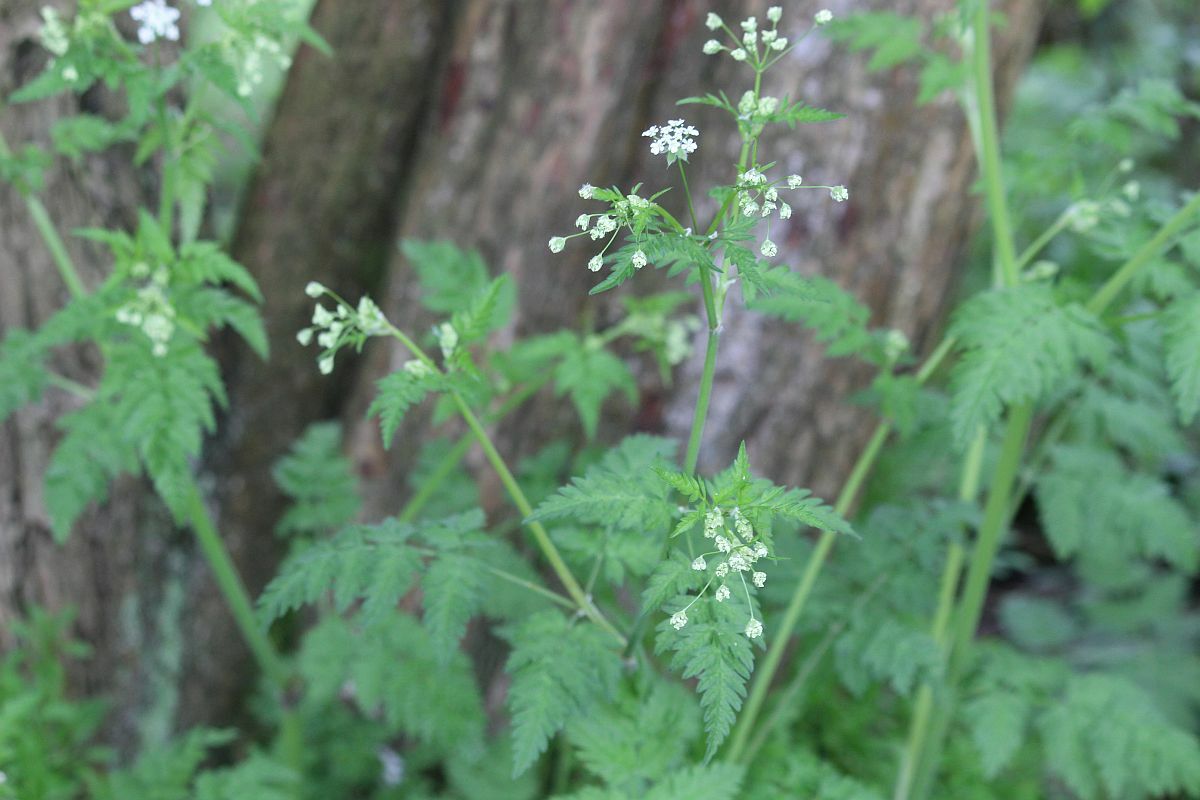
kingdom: Plantae
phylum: Tracheophyta
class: Magnoliopsida
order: Apiales
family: Apiaceae
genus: Anthriscus
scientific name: Anthriscus sylvestris
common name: Cow parsley
